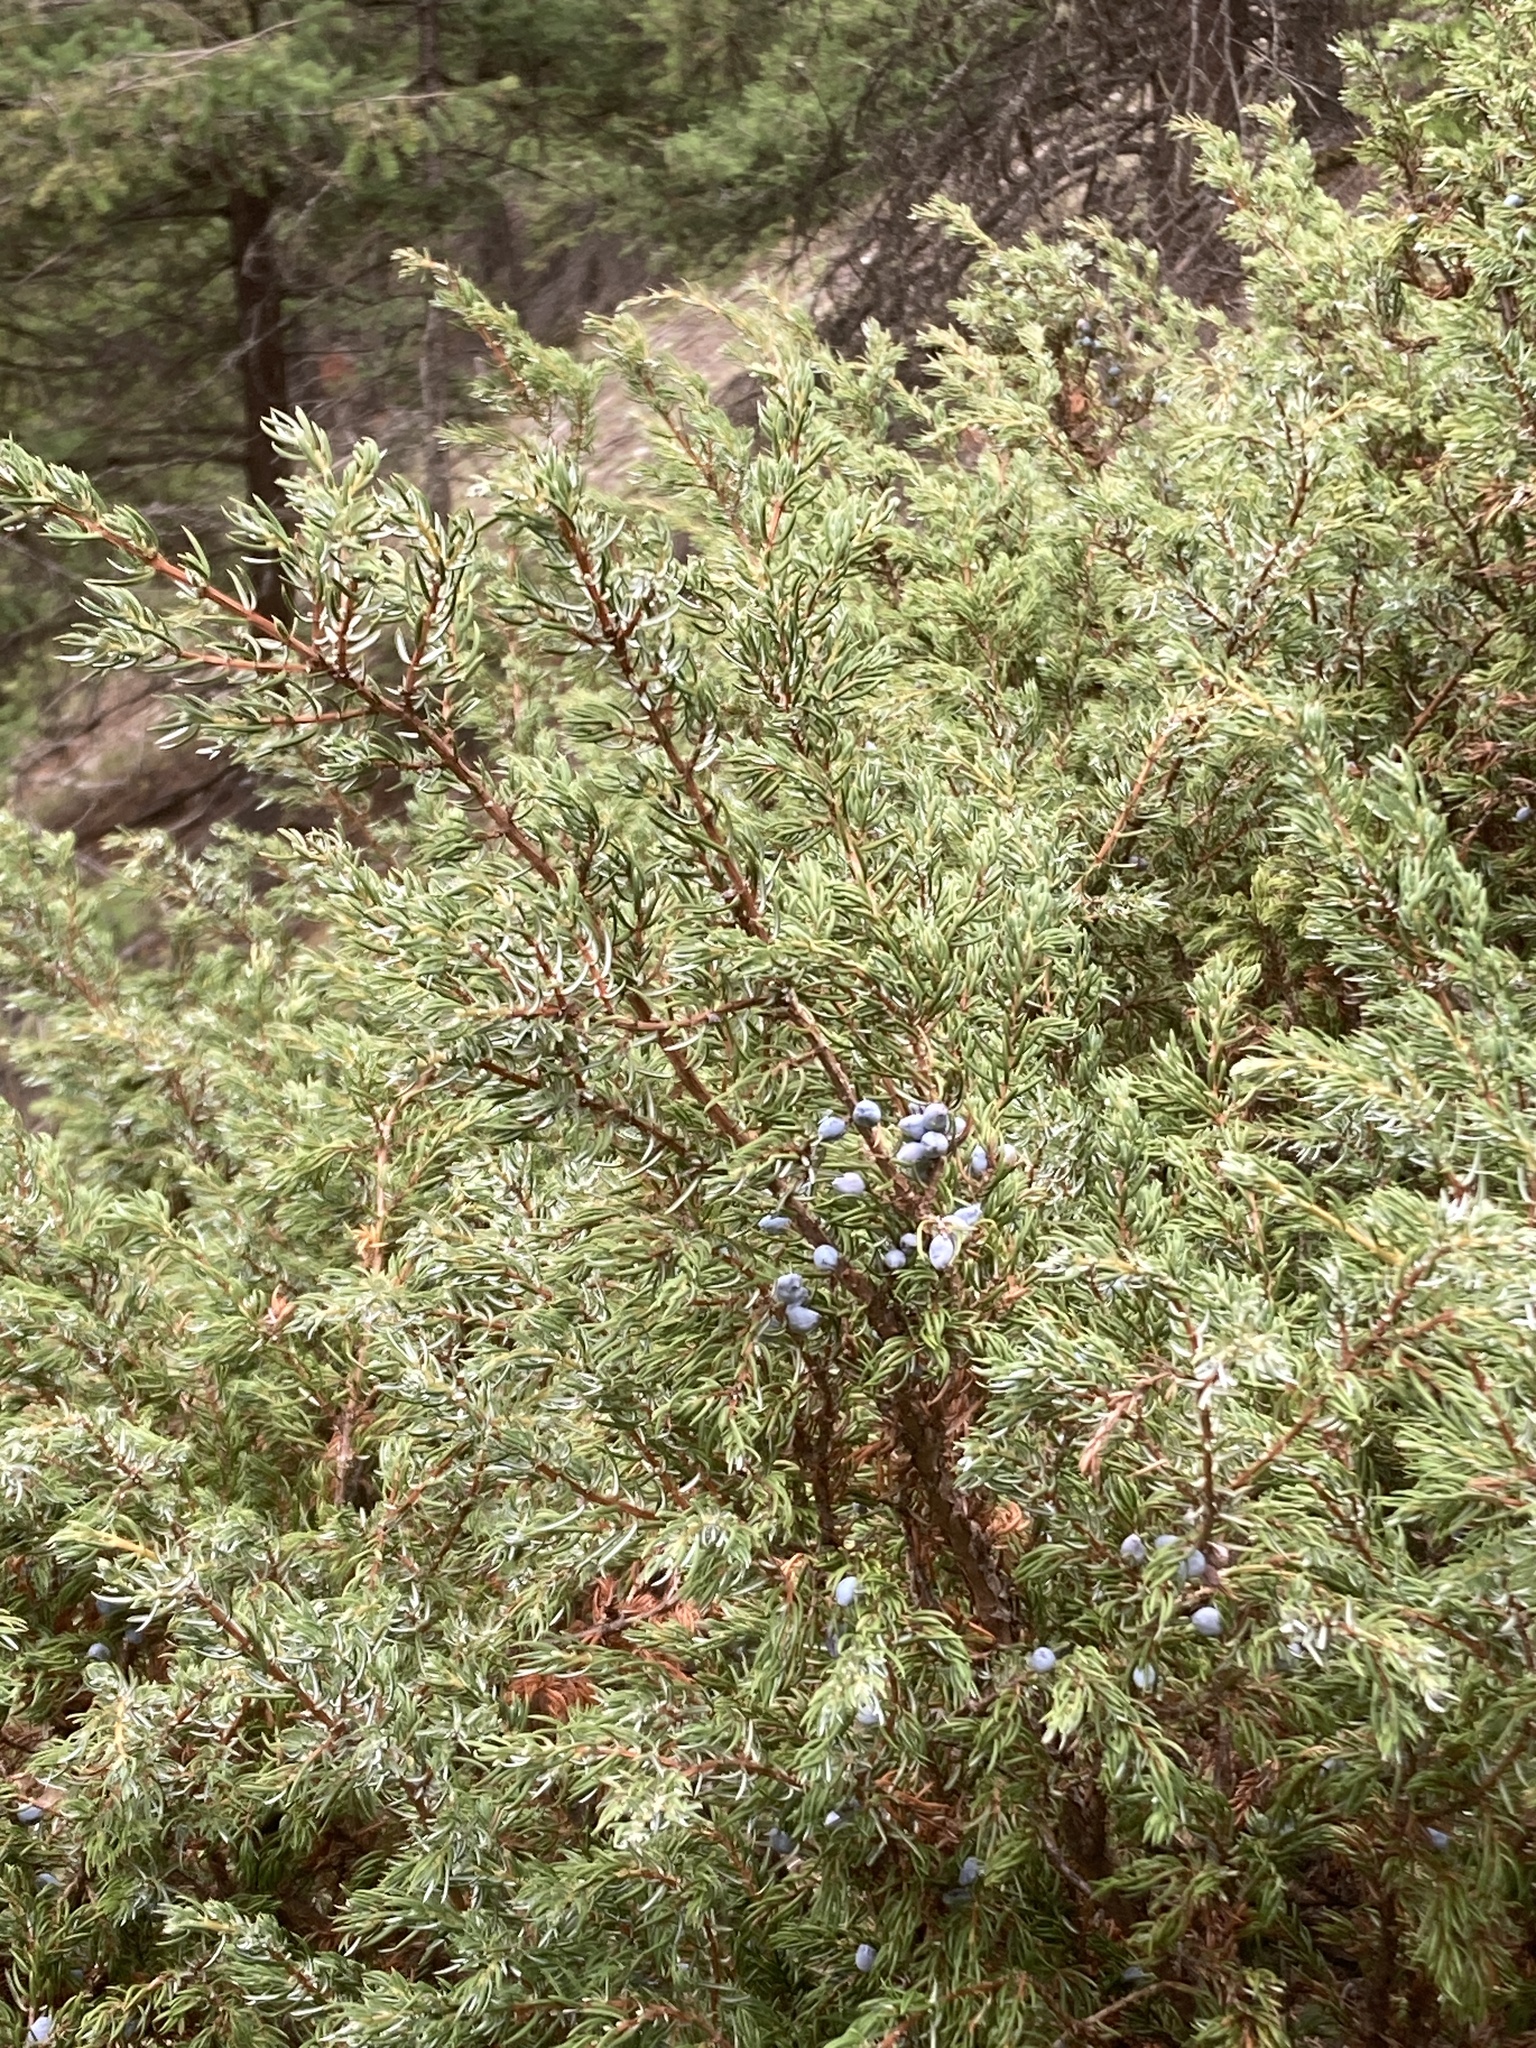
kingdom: Plantae
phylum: Tracheophyta
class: Pinopsida
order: Pinales
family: Cupressaceae
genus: Juniperus
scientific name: Juniperus communis
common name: Common juniper
